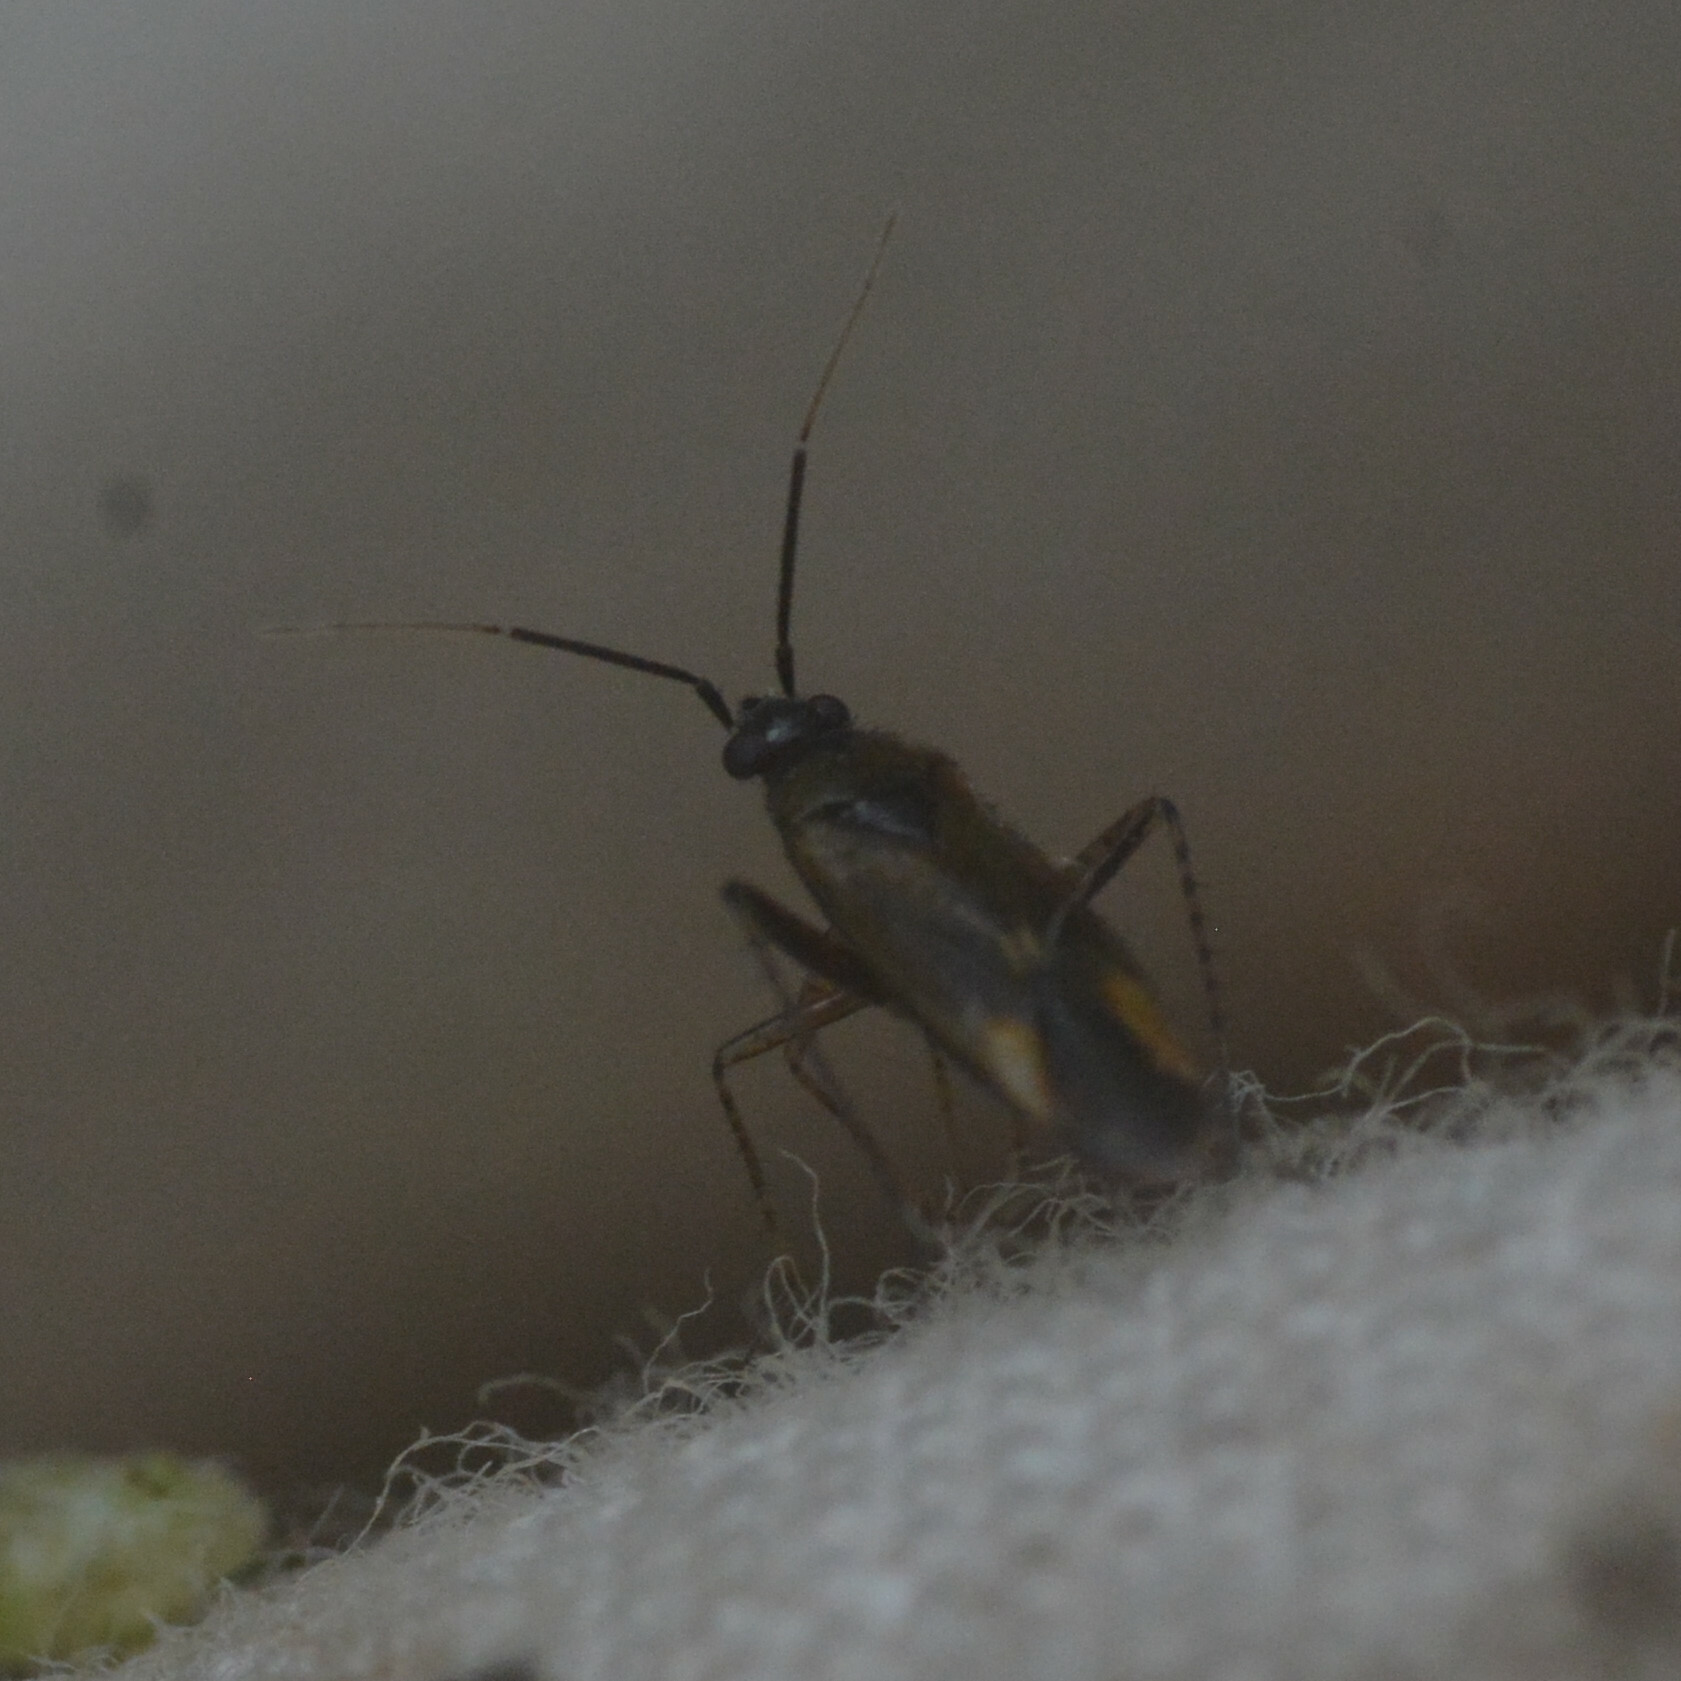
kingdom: Animalia
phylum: Arthropoda
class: Insecta
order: Hemiptera
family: Miridae
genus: Plagiognathus
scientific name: Plagiognathus arbustorum
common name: Plant bug
